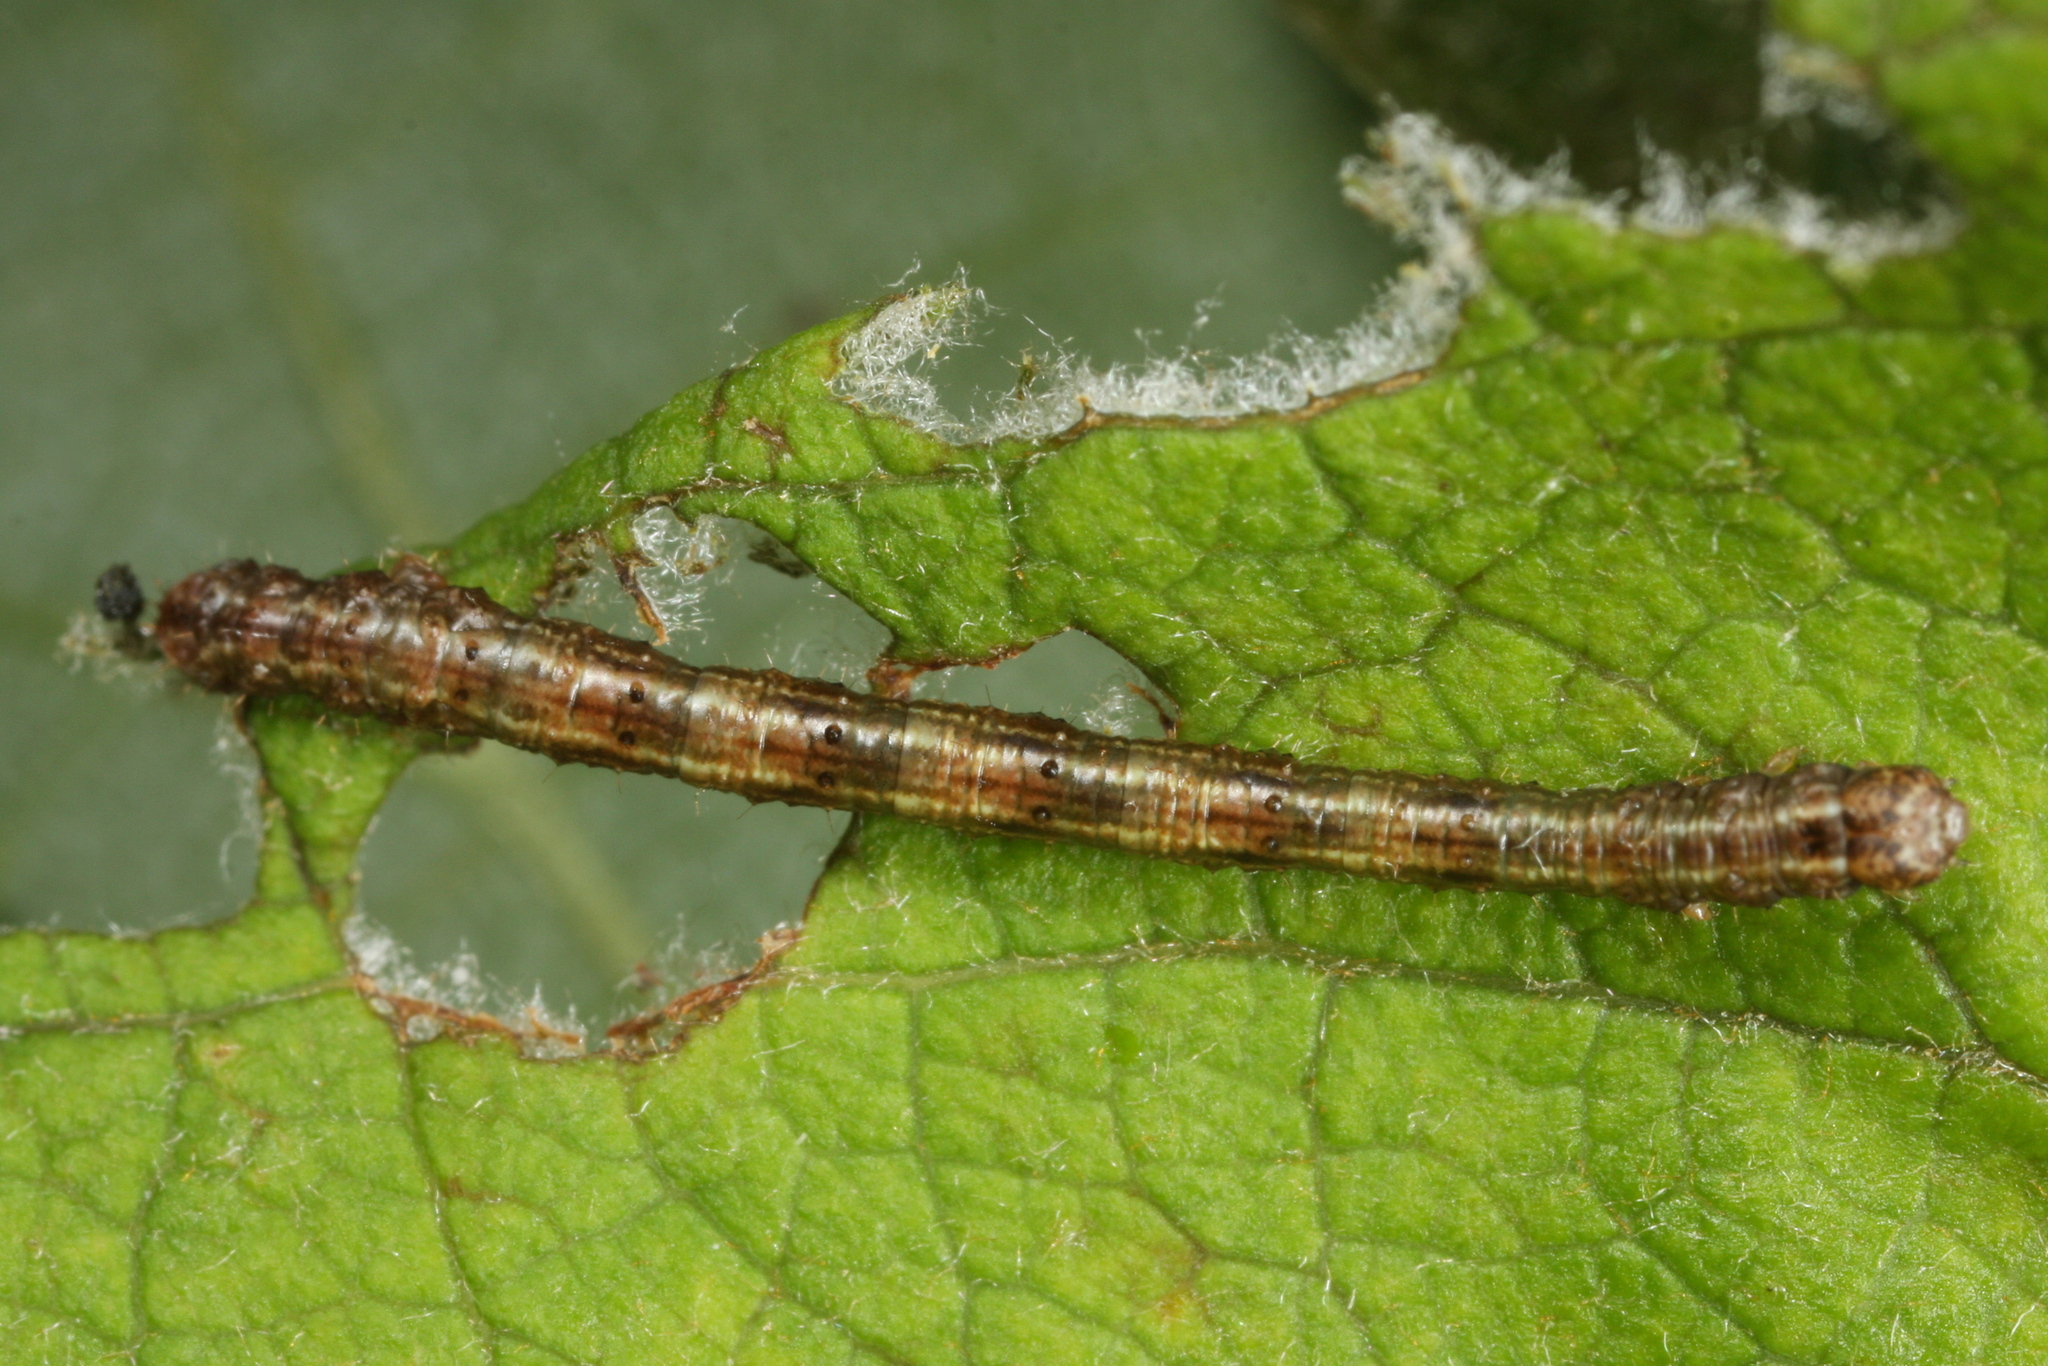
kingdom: Animalia
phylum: Arthropoda
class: Insecta
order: Lepidoptera
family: Geometridae
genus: Campaea
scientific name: Campaea margaritaria
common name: Light emerald
